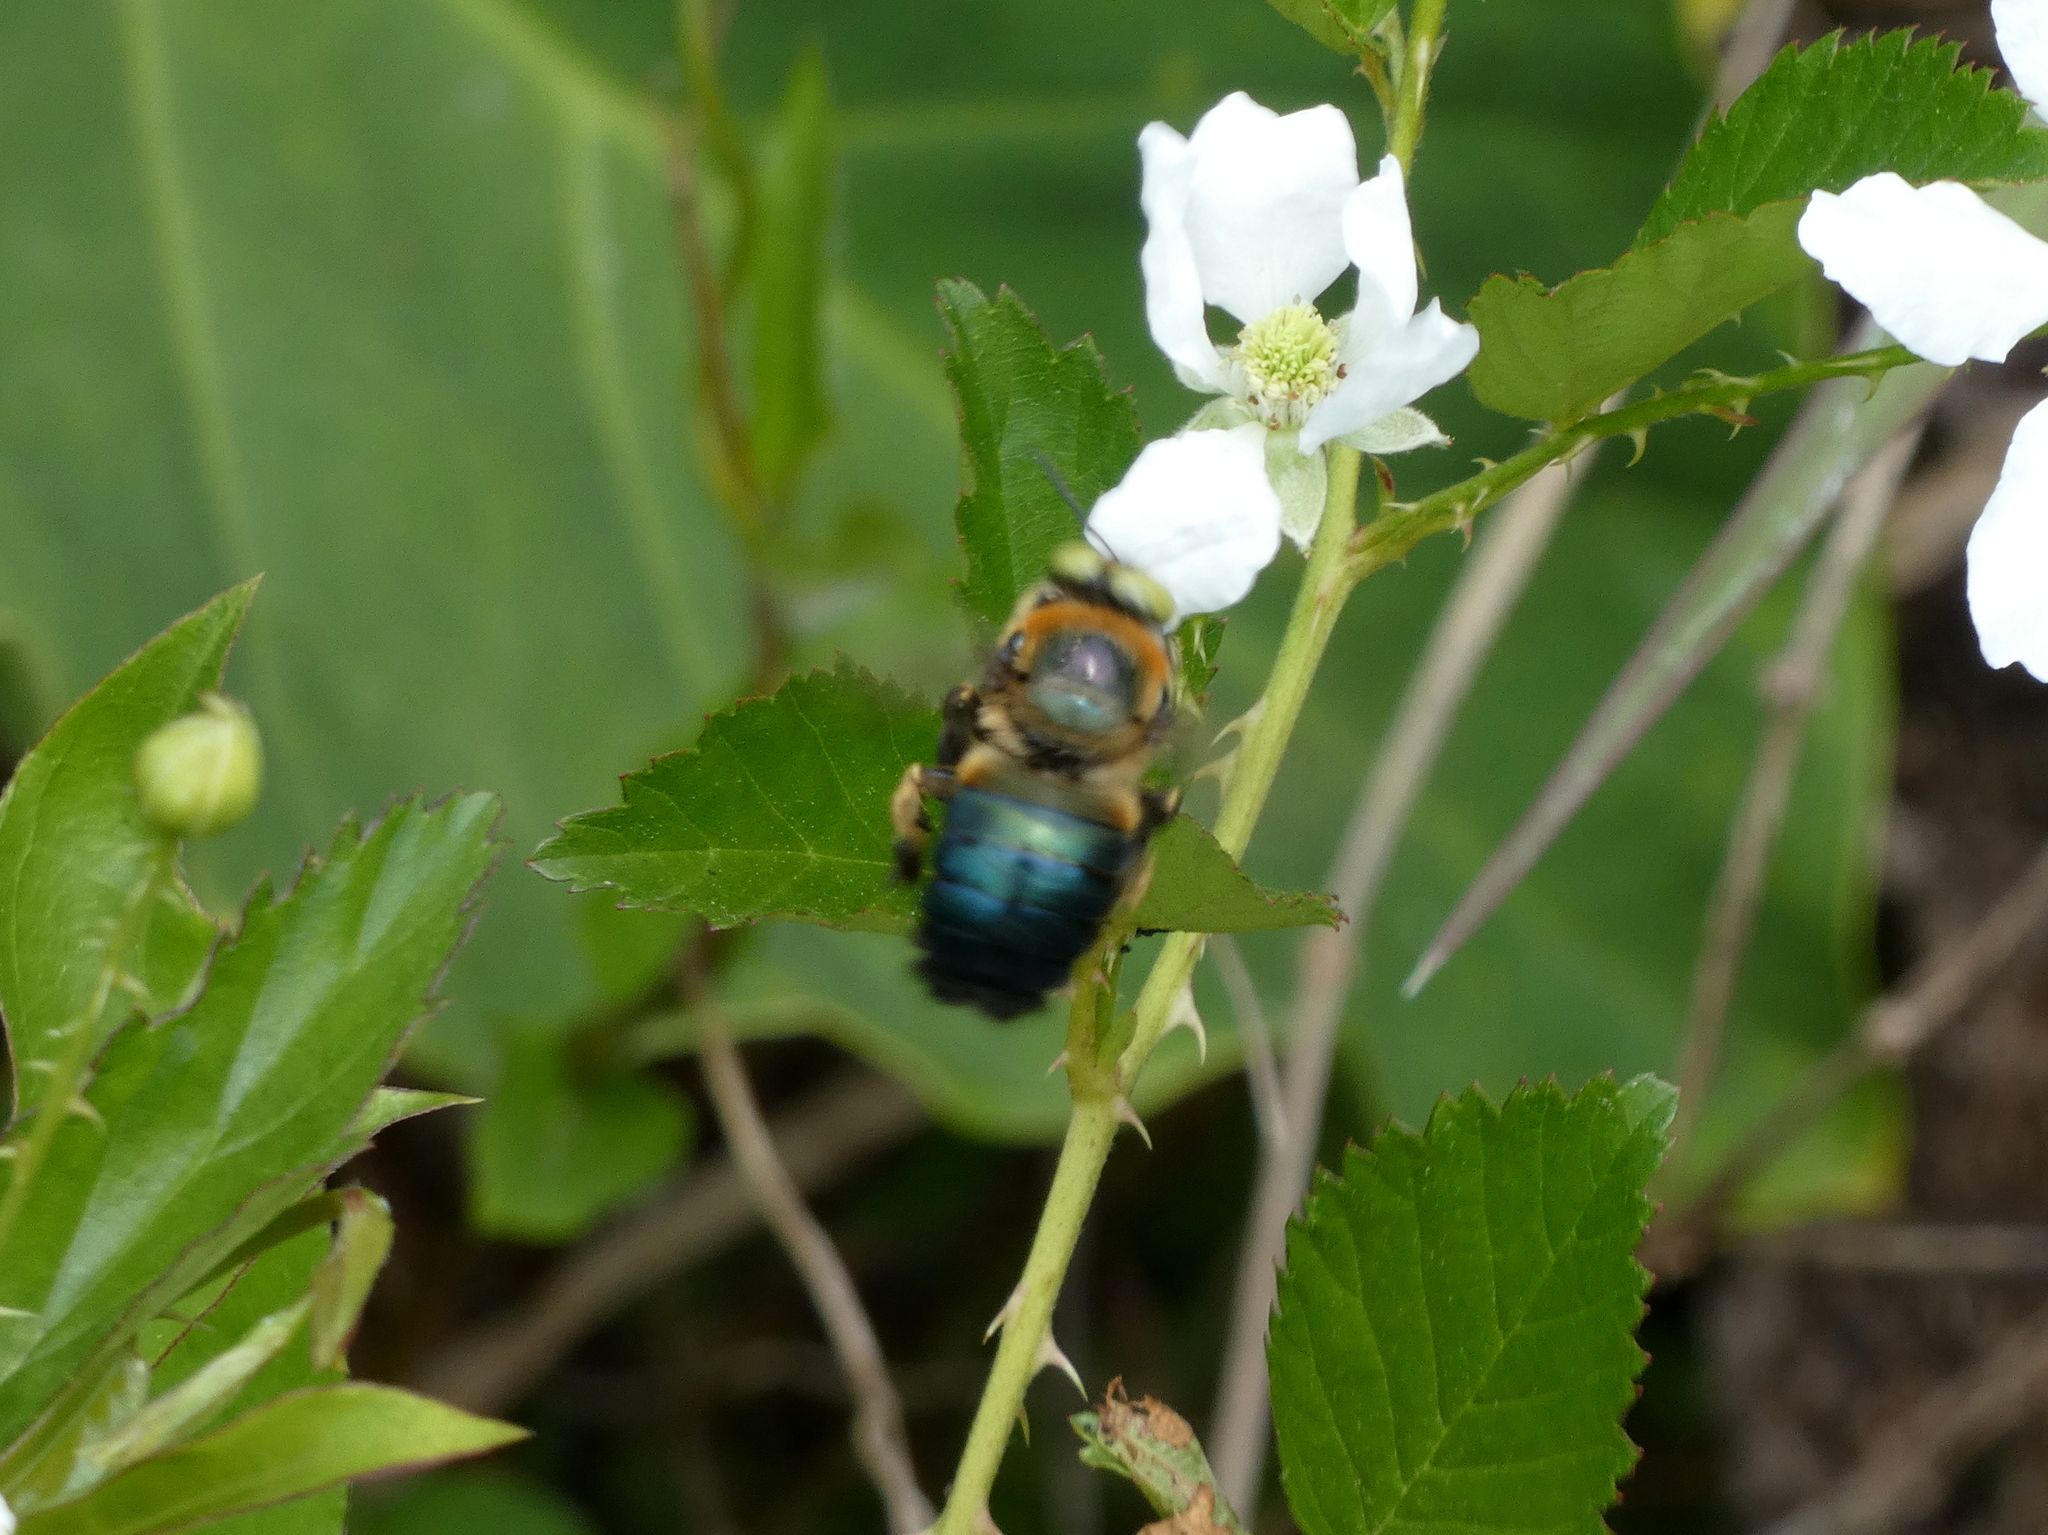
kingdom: Animalia
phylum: Arthropoda
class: Insecta
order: Hymenoptera
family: Apidae
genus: Xylocopa
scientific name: Xylocopa micans
